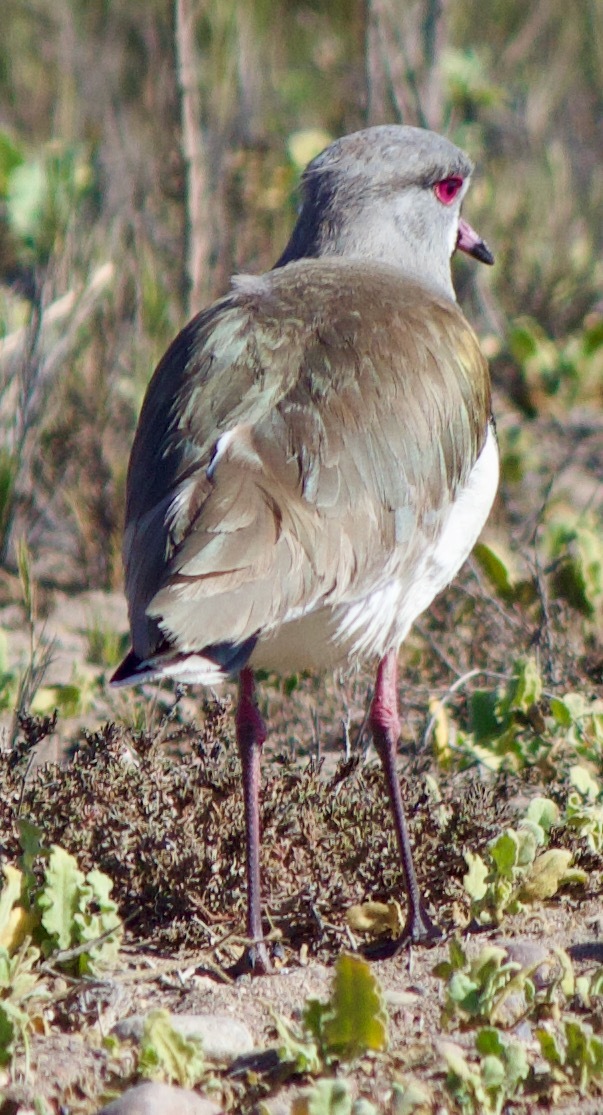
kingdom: Animalia
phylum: Chordata
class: Aves
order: Charadriiformes
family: Charadriidae
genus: Vanellus
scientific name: Vanellus chilensis
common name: Southern lapwing
